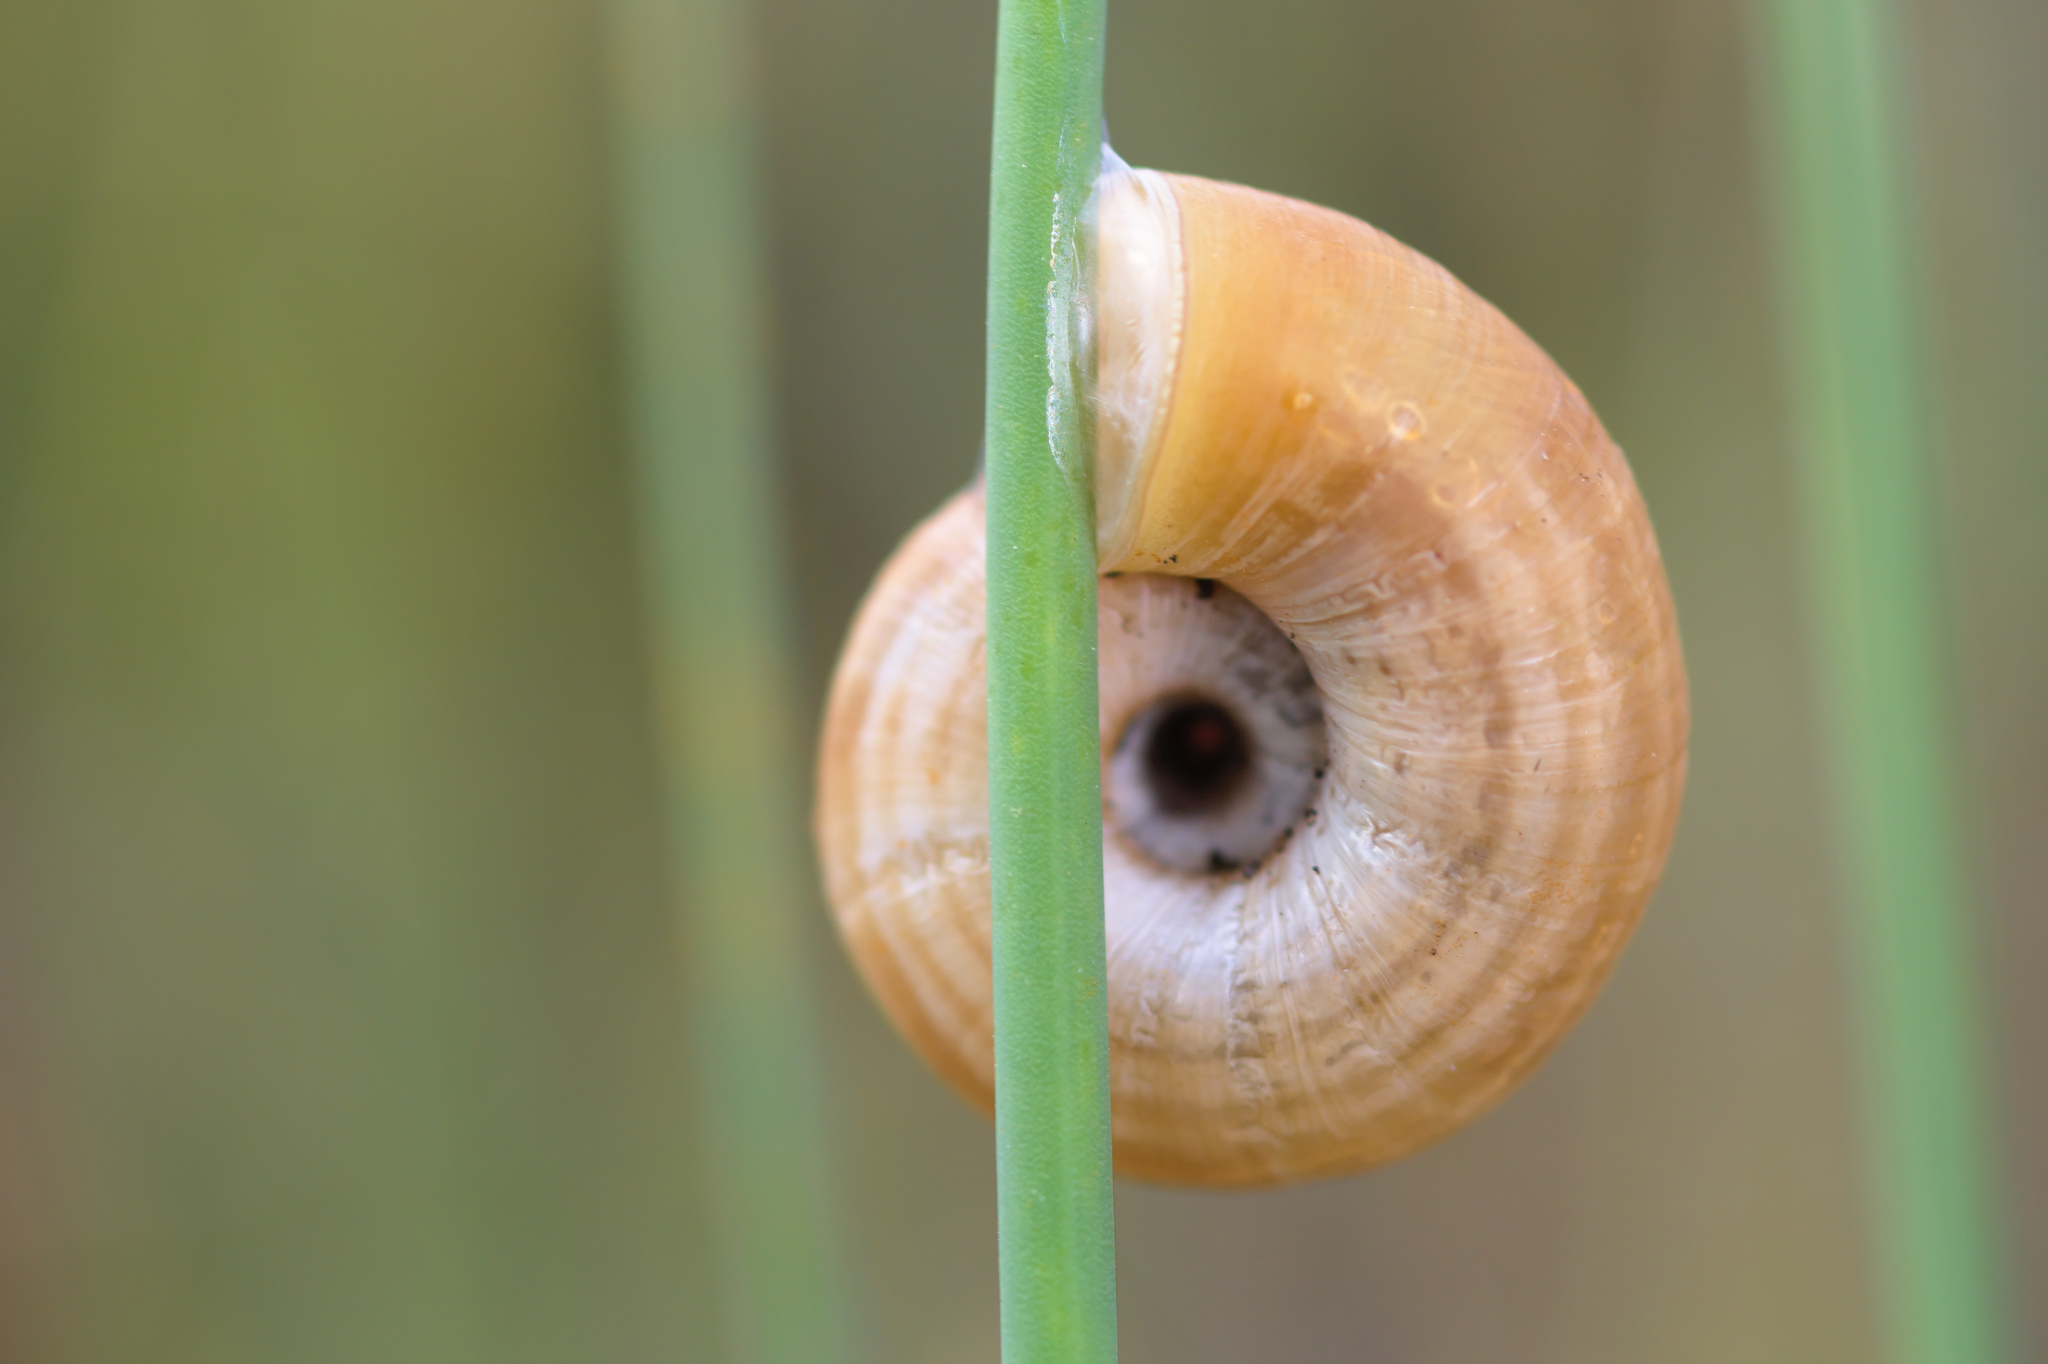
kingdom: Animalia
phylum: Mollusca
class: Gastropoda
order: Stylommatophora
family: Geomitridae
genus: Helicella
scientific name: Helicella itala
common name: Heath snail
